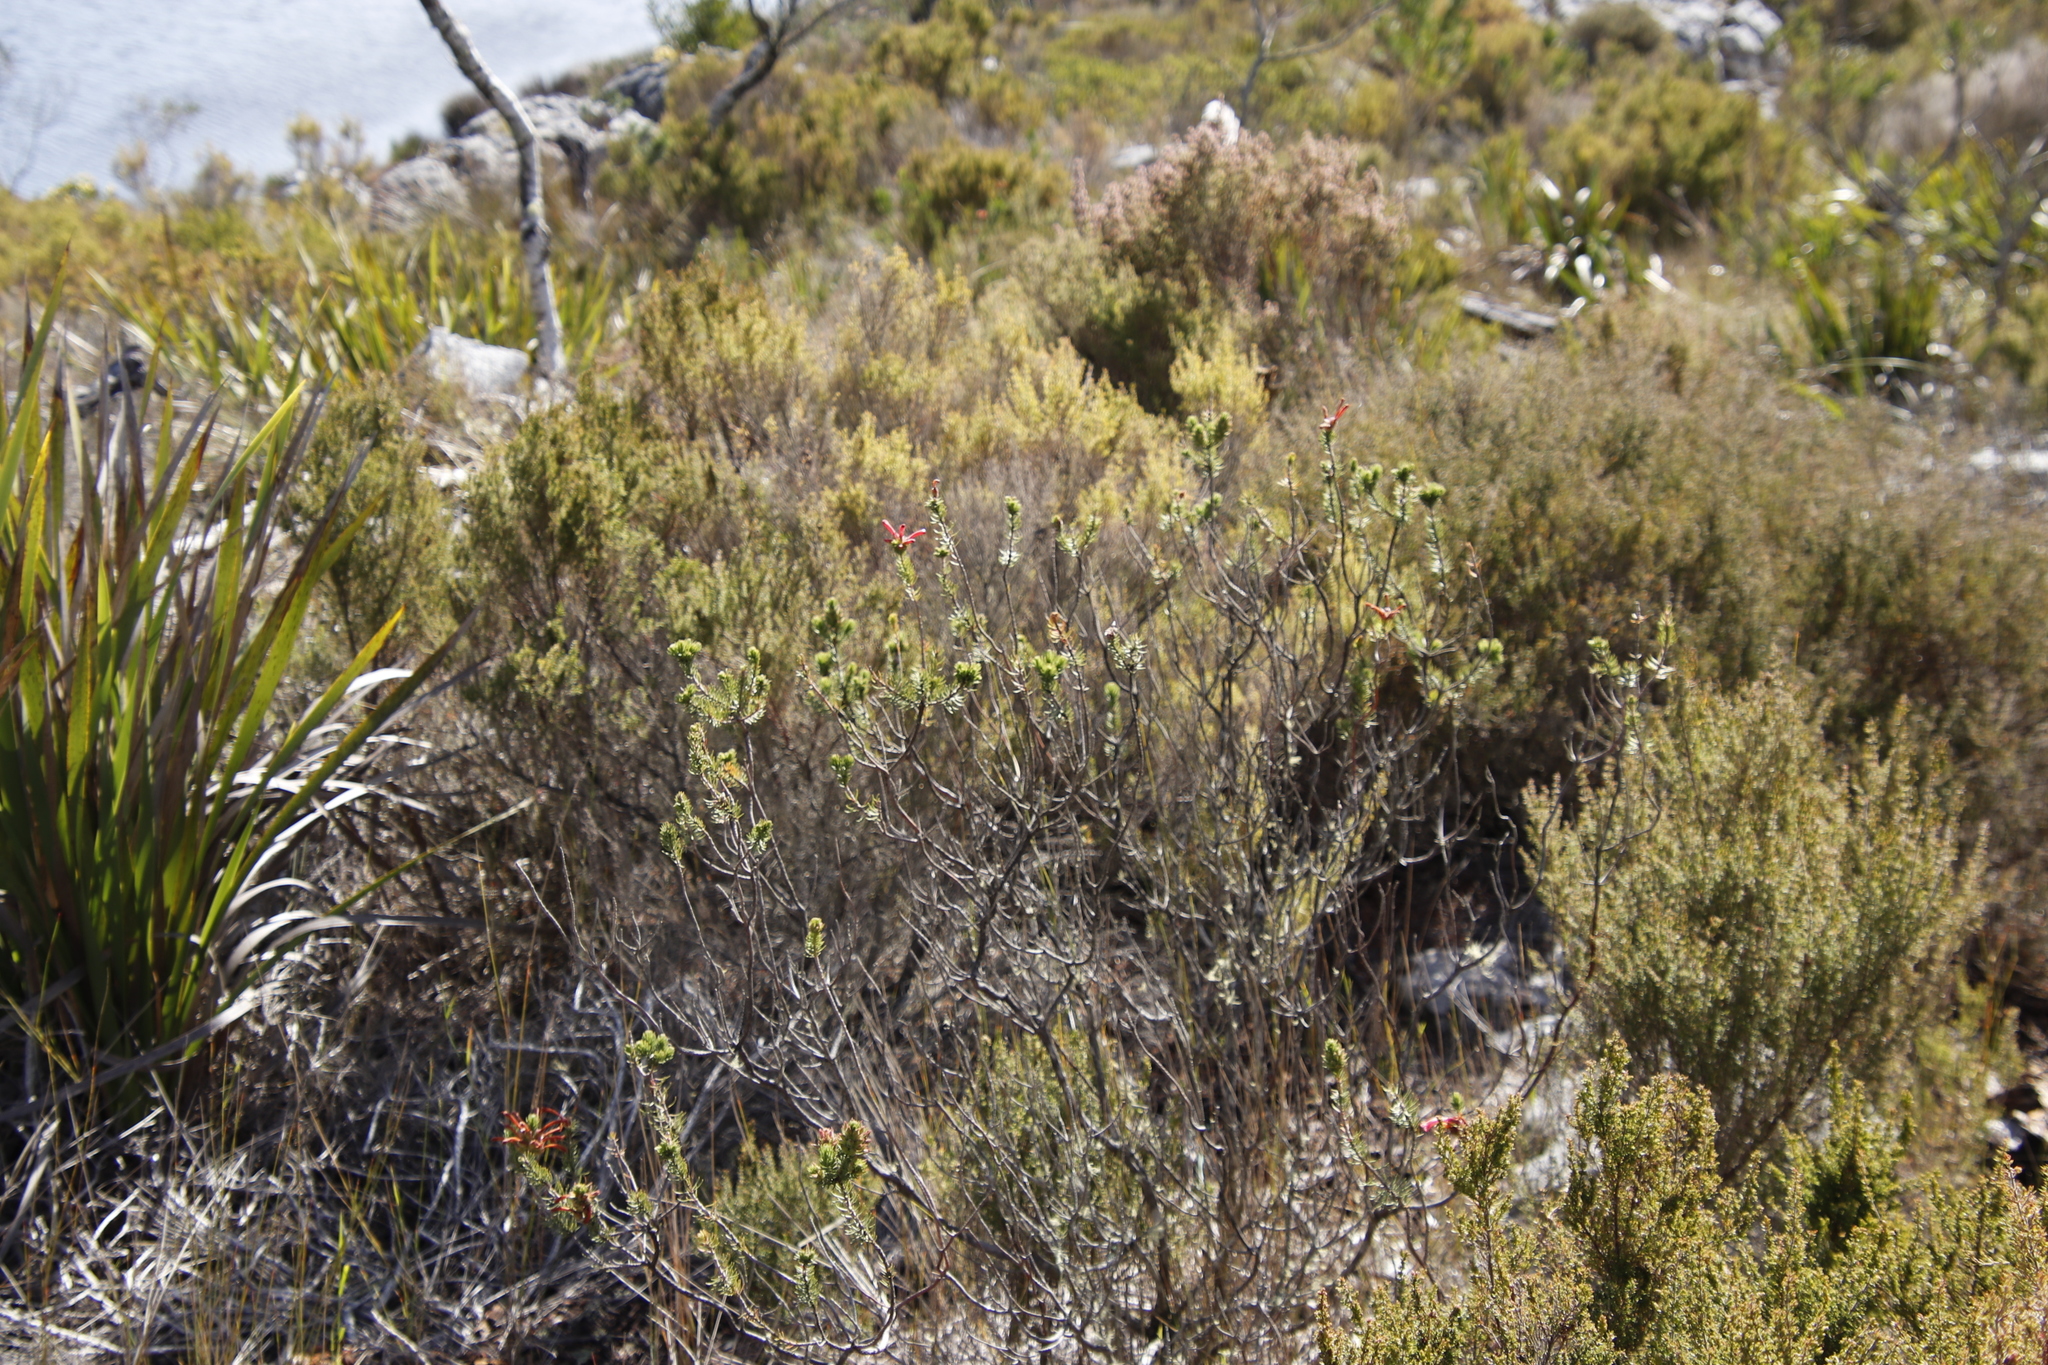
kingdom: Plantae
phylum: Tracheophyta
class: Magnoliopsida
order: Ericales
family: Ericaceae
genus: Erica
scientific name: Erica abietina
